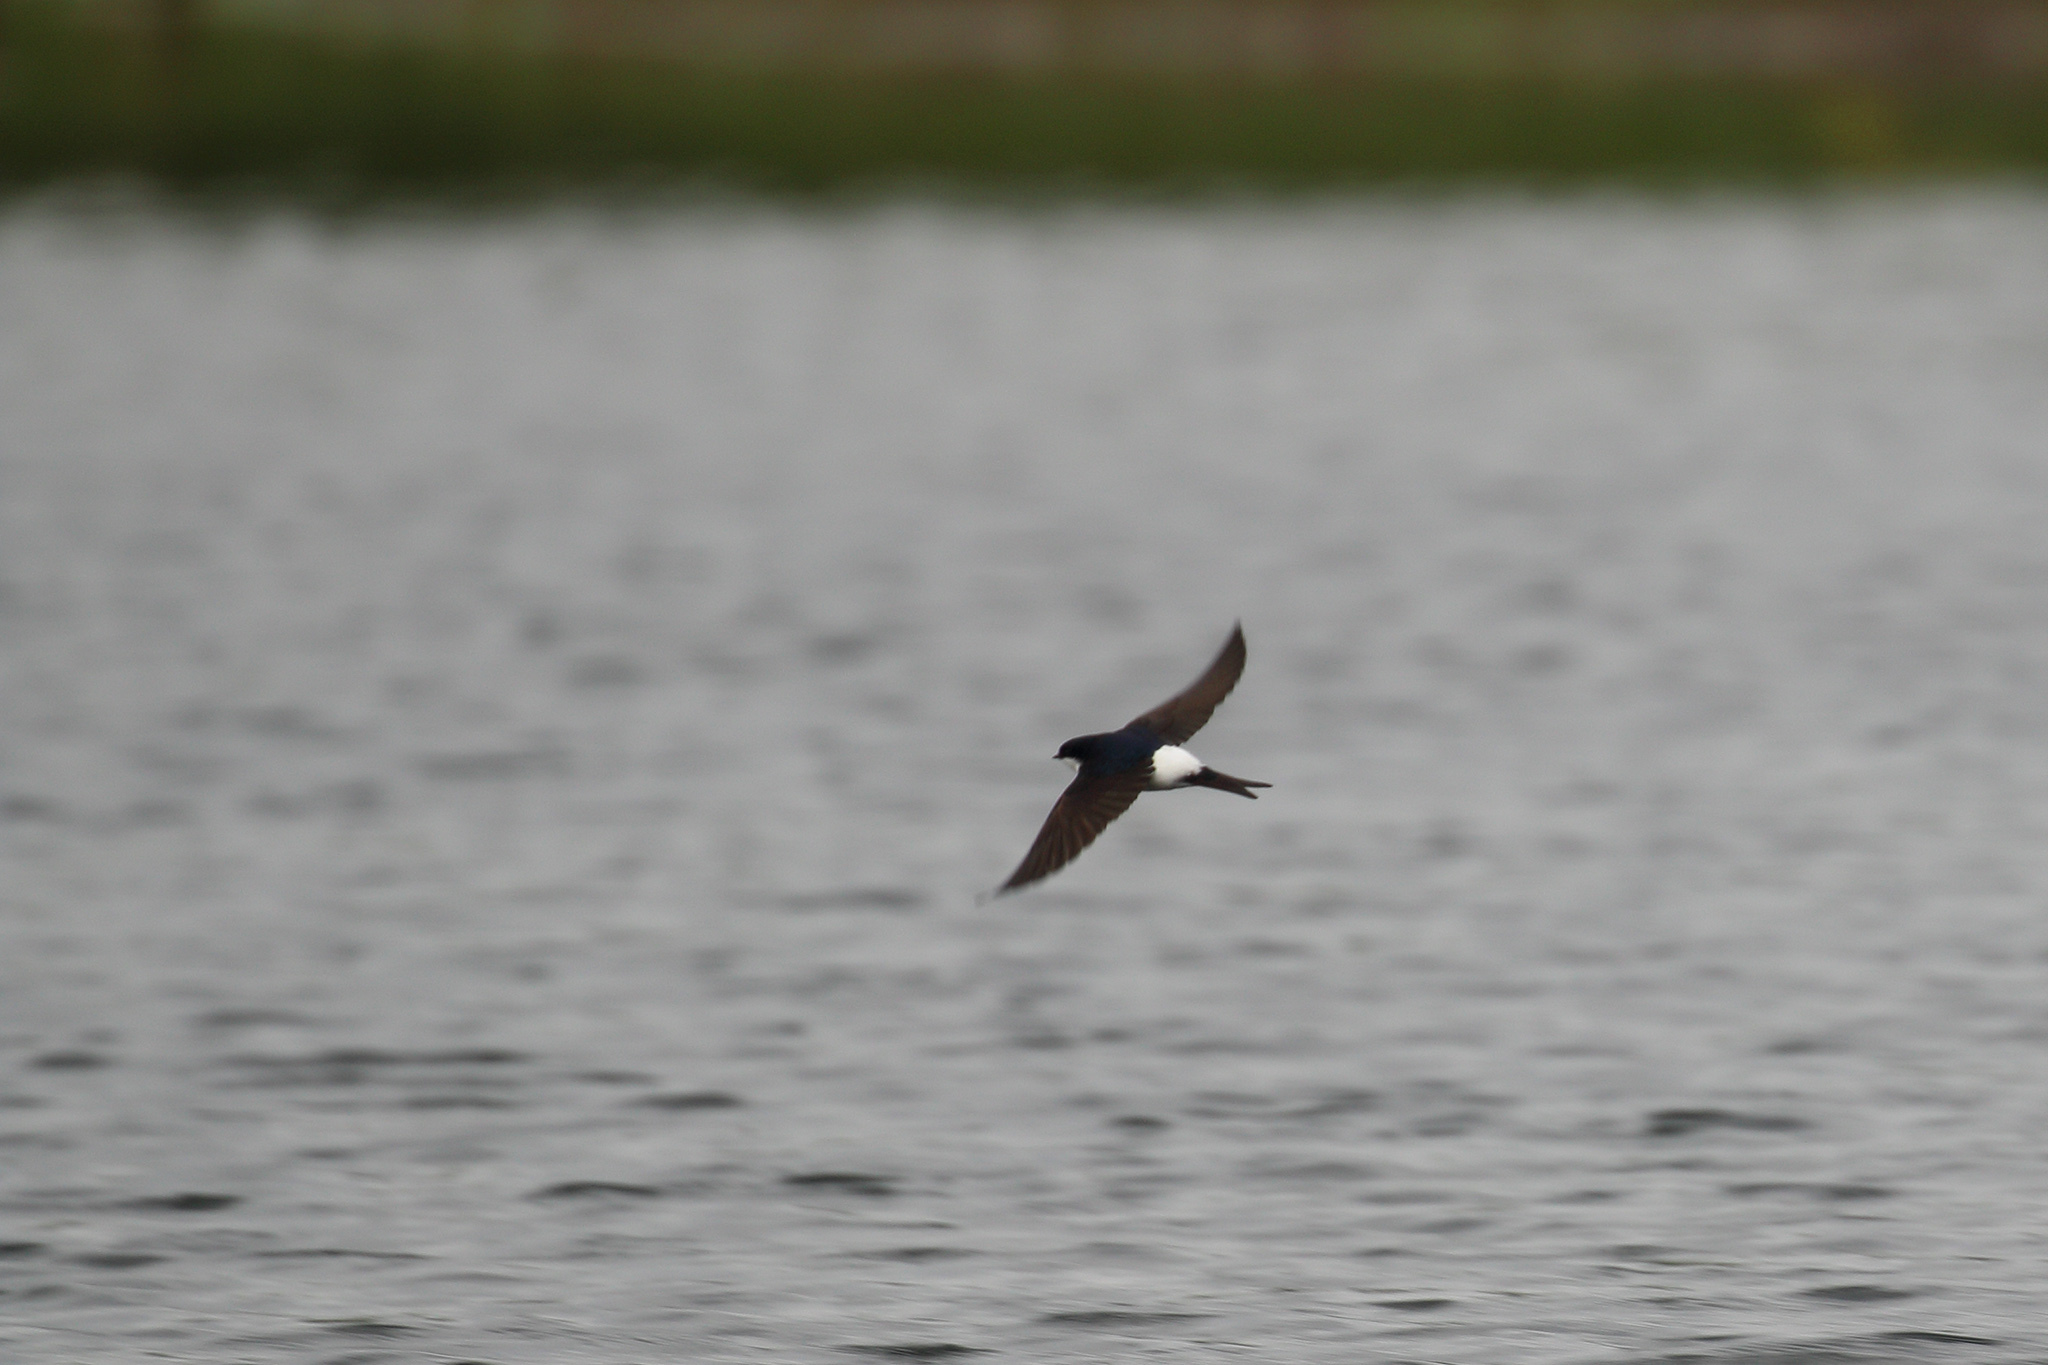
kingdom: Animalia
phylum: Chordata
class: Aves
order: Passeriformes
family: Hirundinidae
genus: Delichon
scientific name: Delichon urbicum
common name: Common house martin
